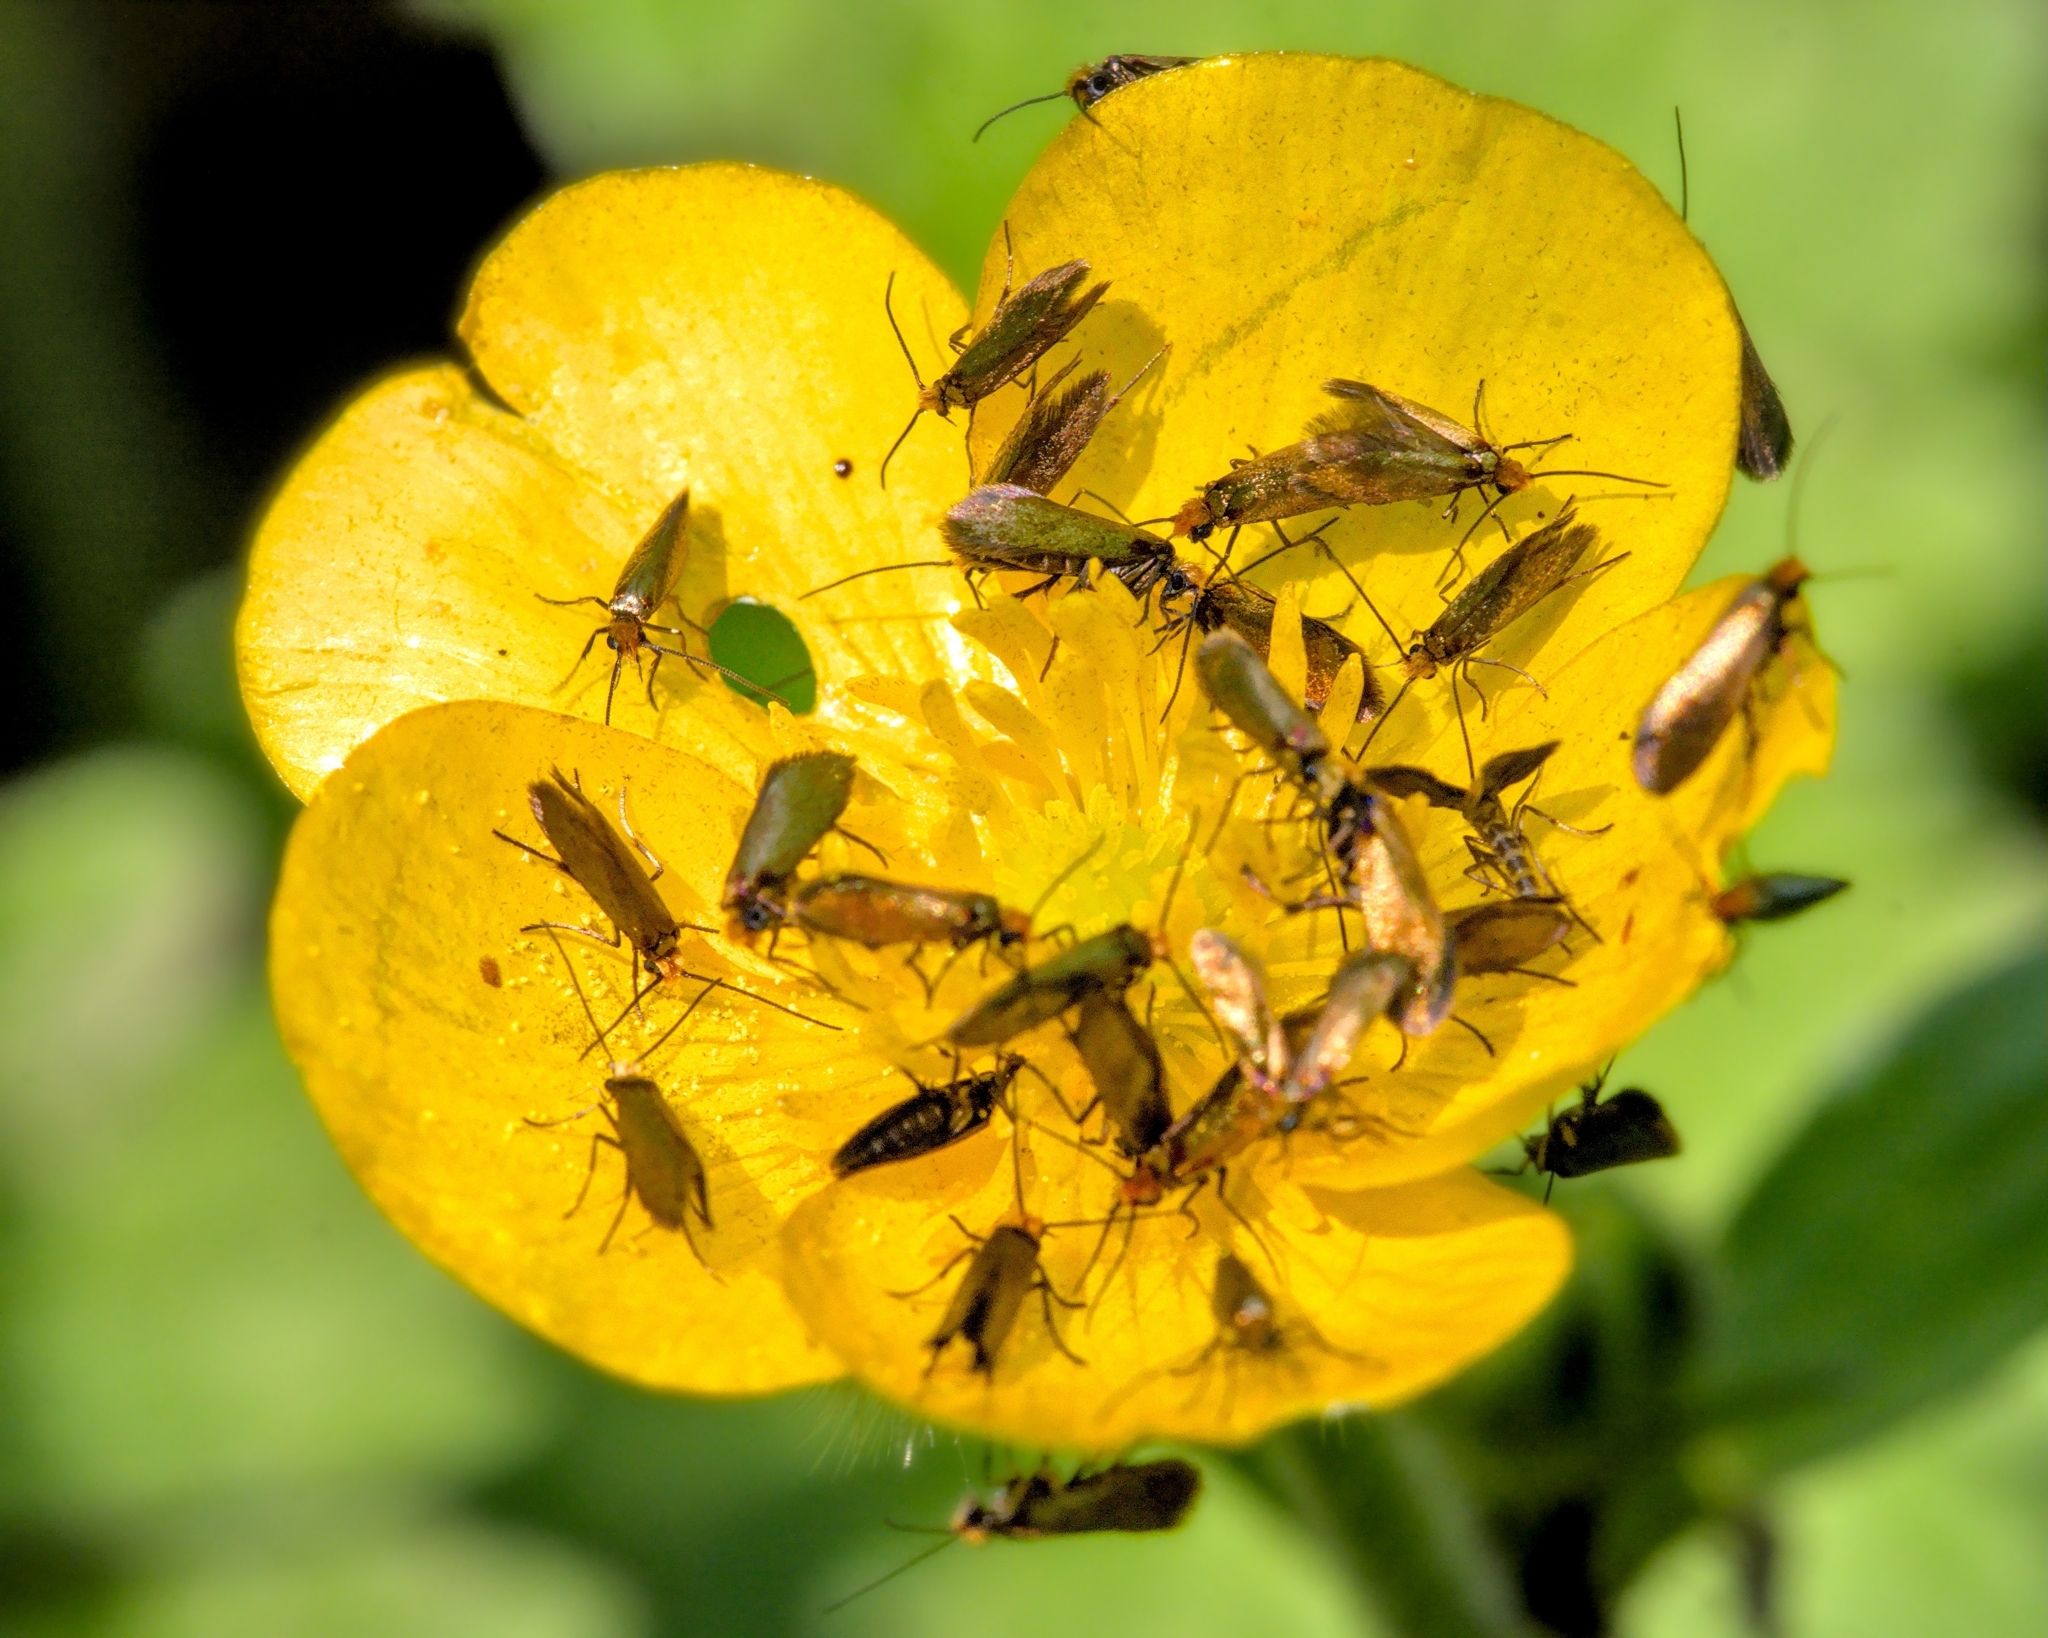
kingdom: Animalia
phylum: Arthropoda
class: Insecta
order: Lepidoptera
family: Micropterigidae
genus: Micropterix
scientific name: Micropterix calthella
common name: Plain gold
